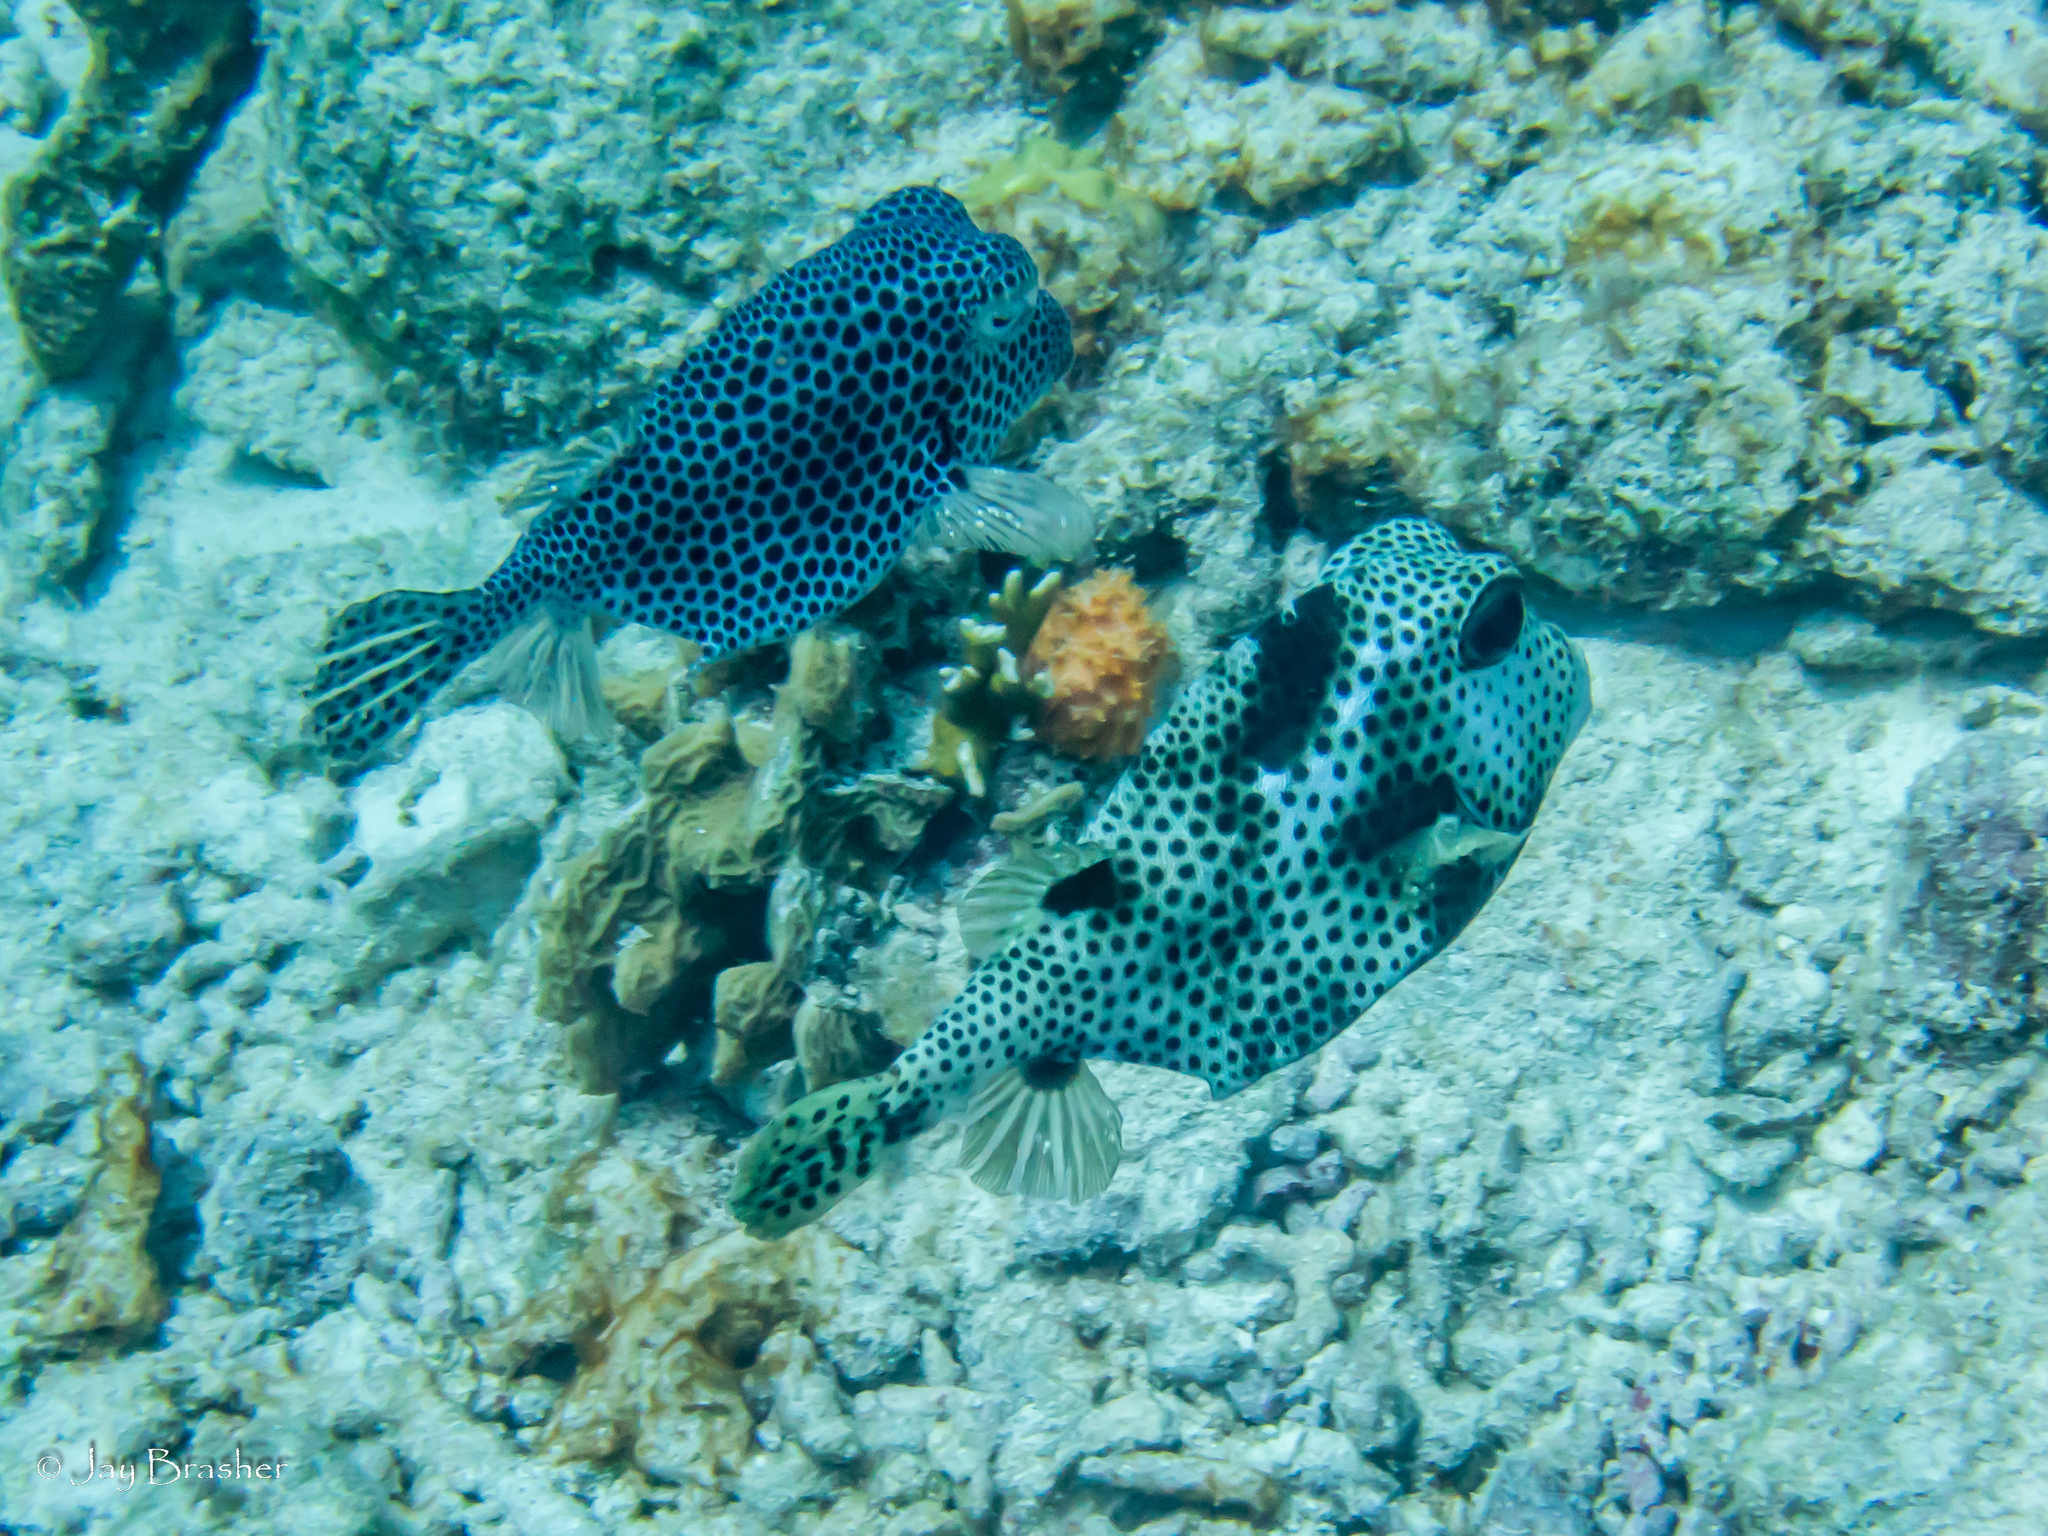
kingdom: Animalia
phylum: Chordata
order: Tetraodontiformes
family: Ostraciidae
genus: Lactophrys
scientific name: Lactophrys bicaudalis
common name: Spotted trunkfish
